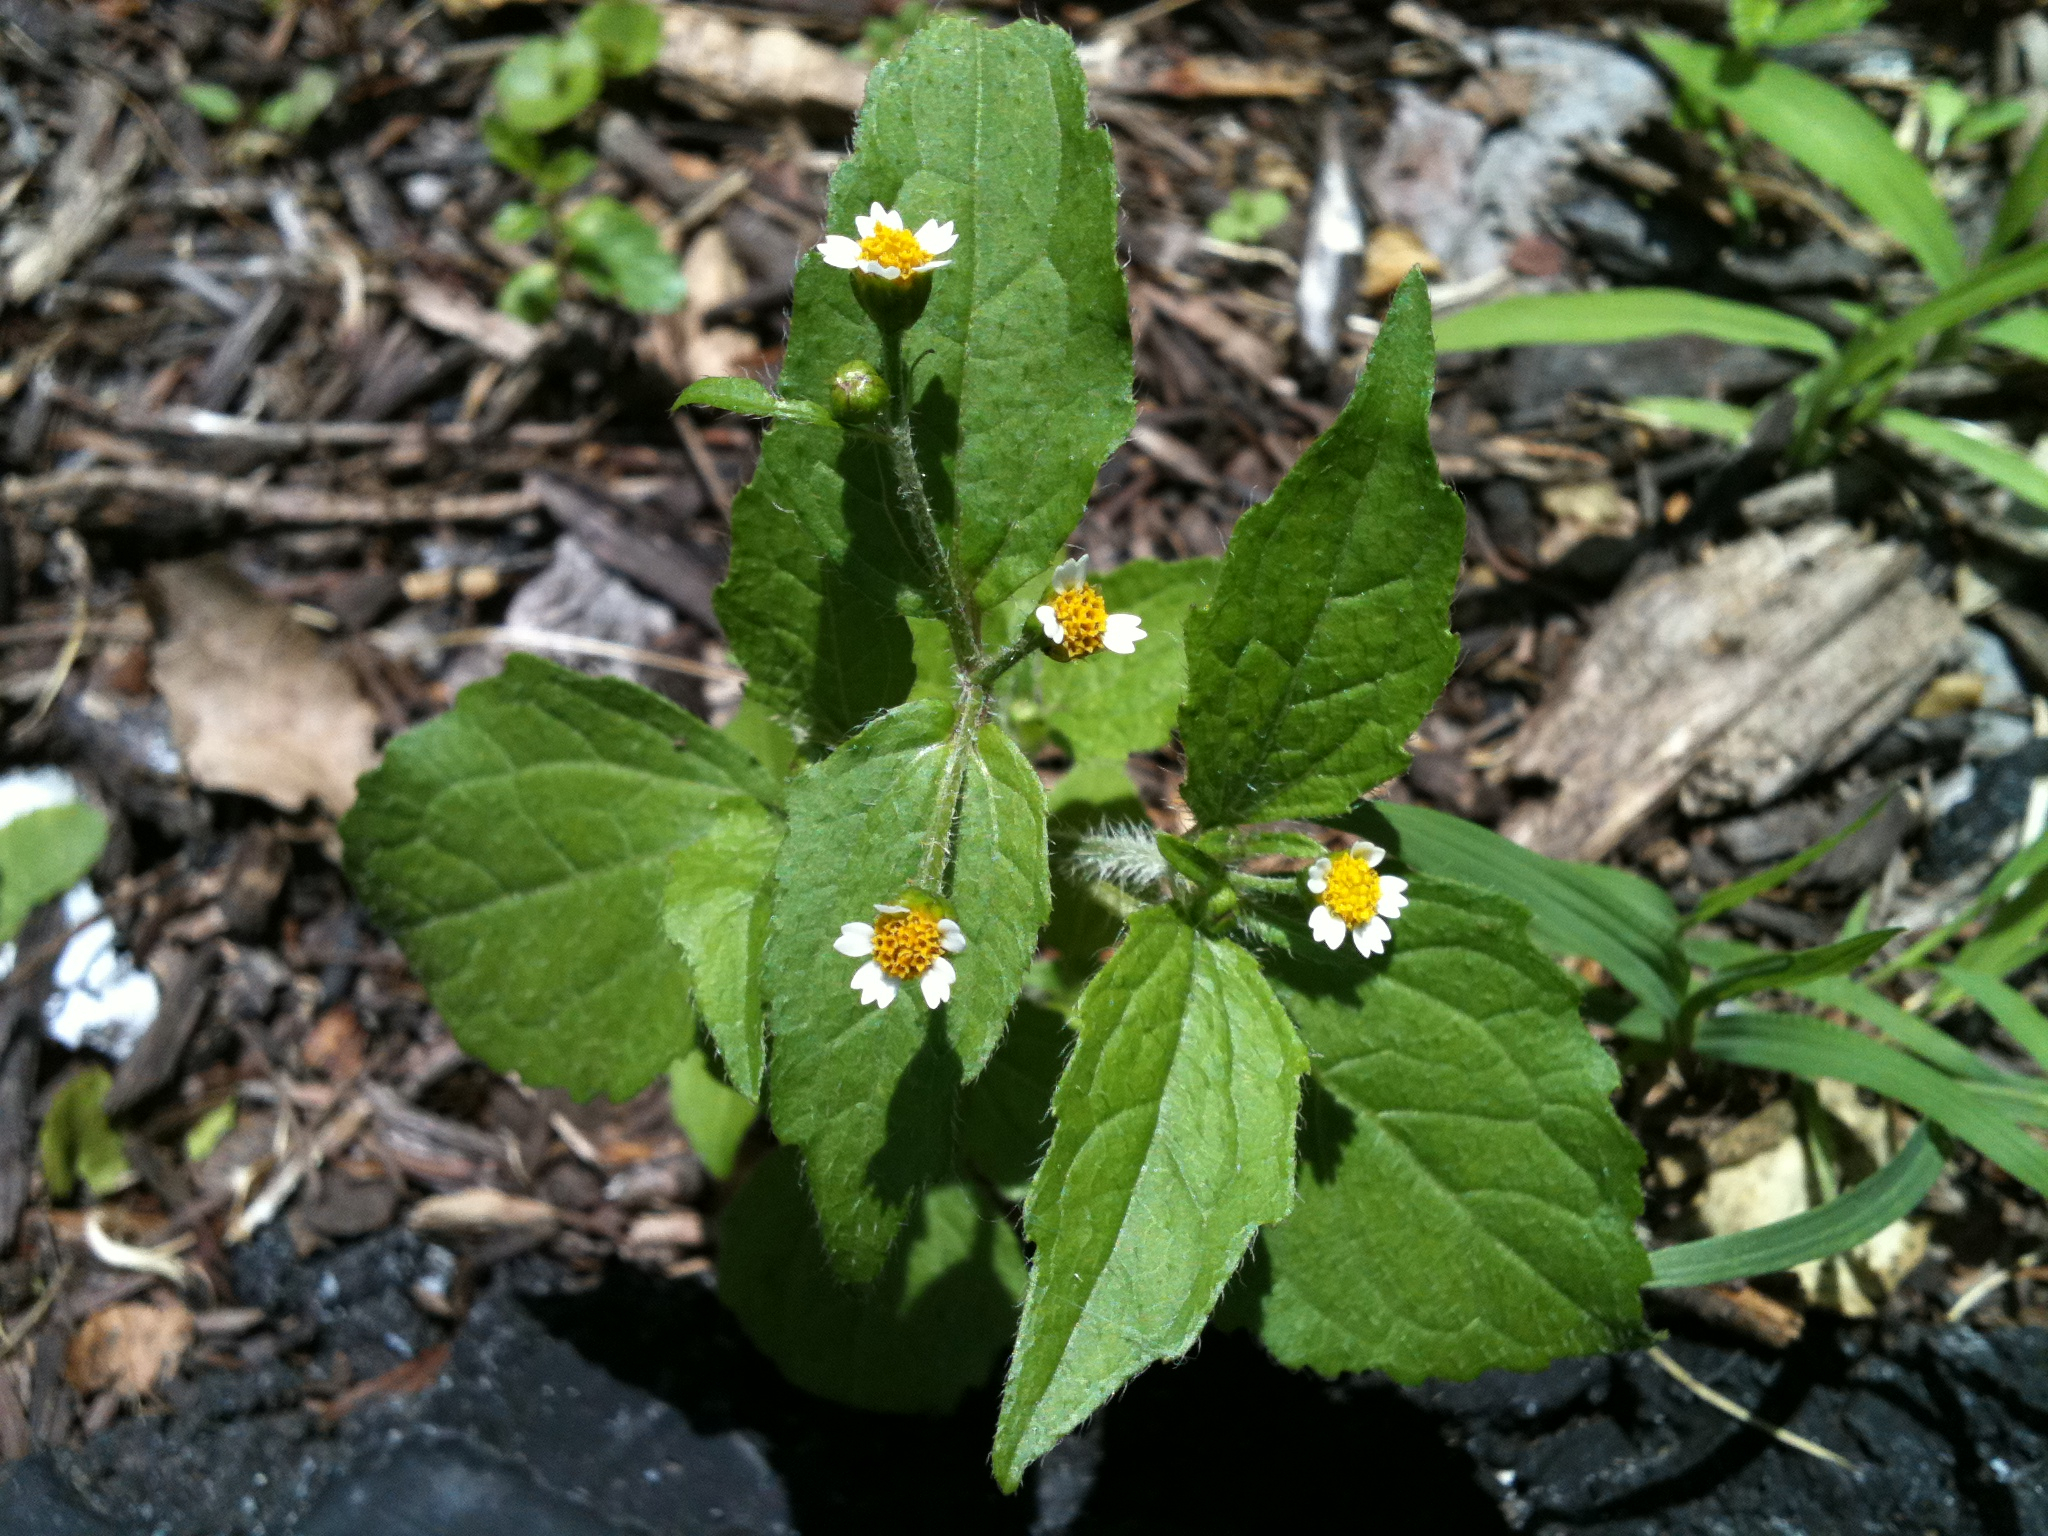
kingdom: Plantae
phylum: Tracheophyta
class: Magnoliopsida
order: Asterales
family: Asteraceae
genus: Galinsoga
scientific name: Galinsoga quadriradiata
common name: Shaggy soldier
